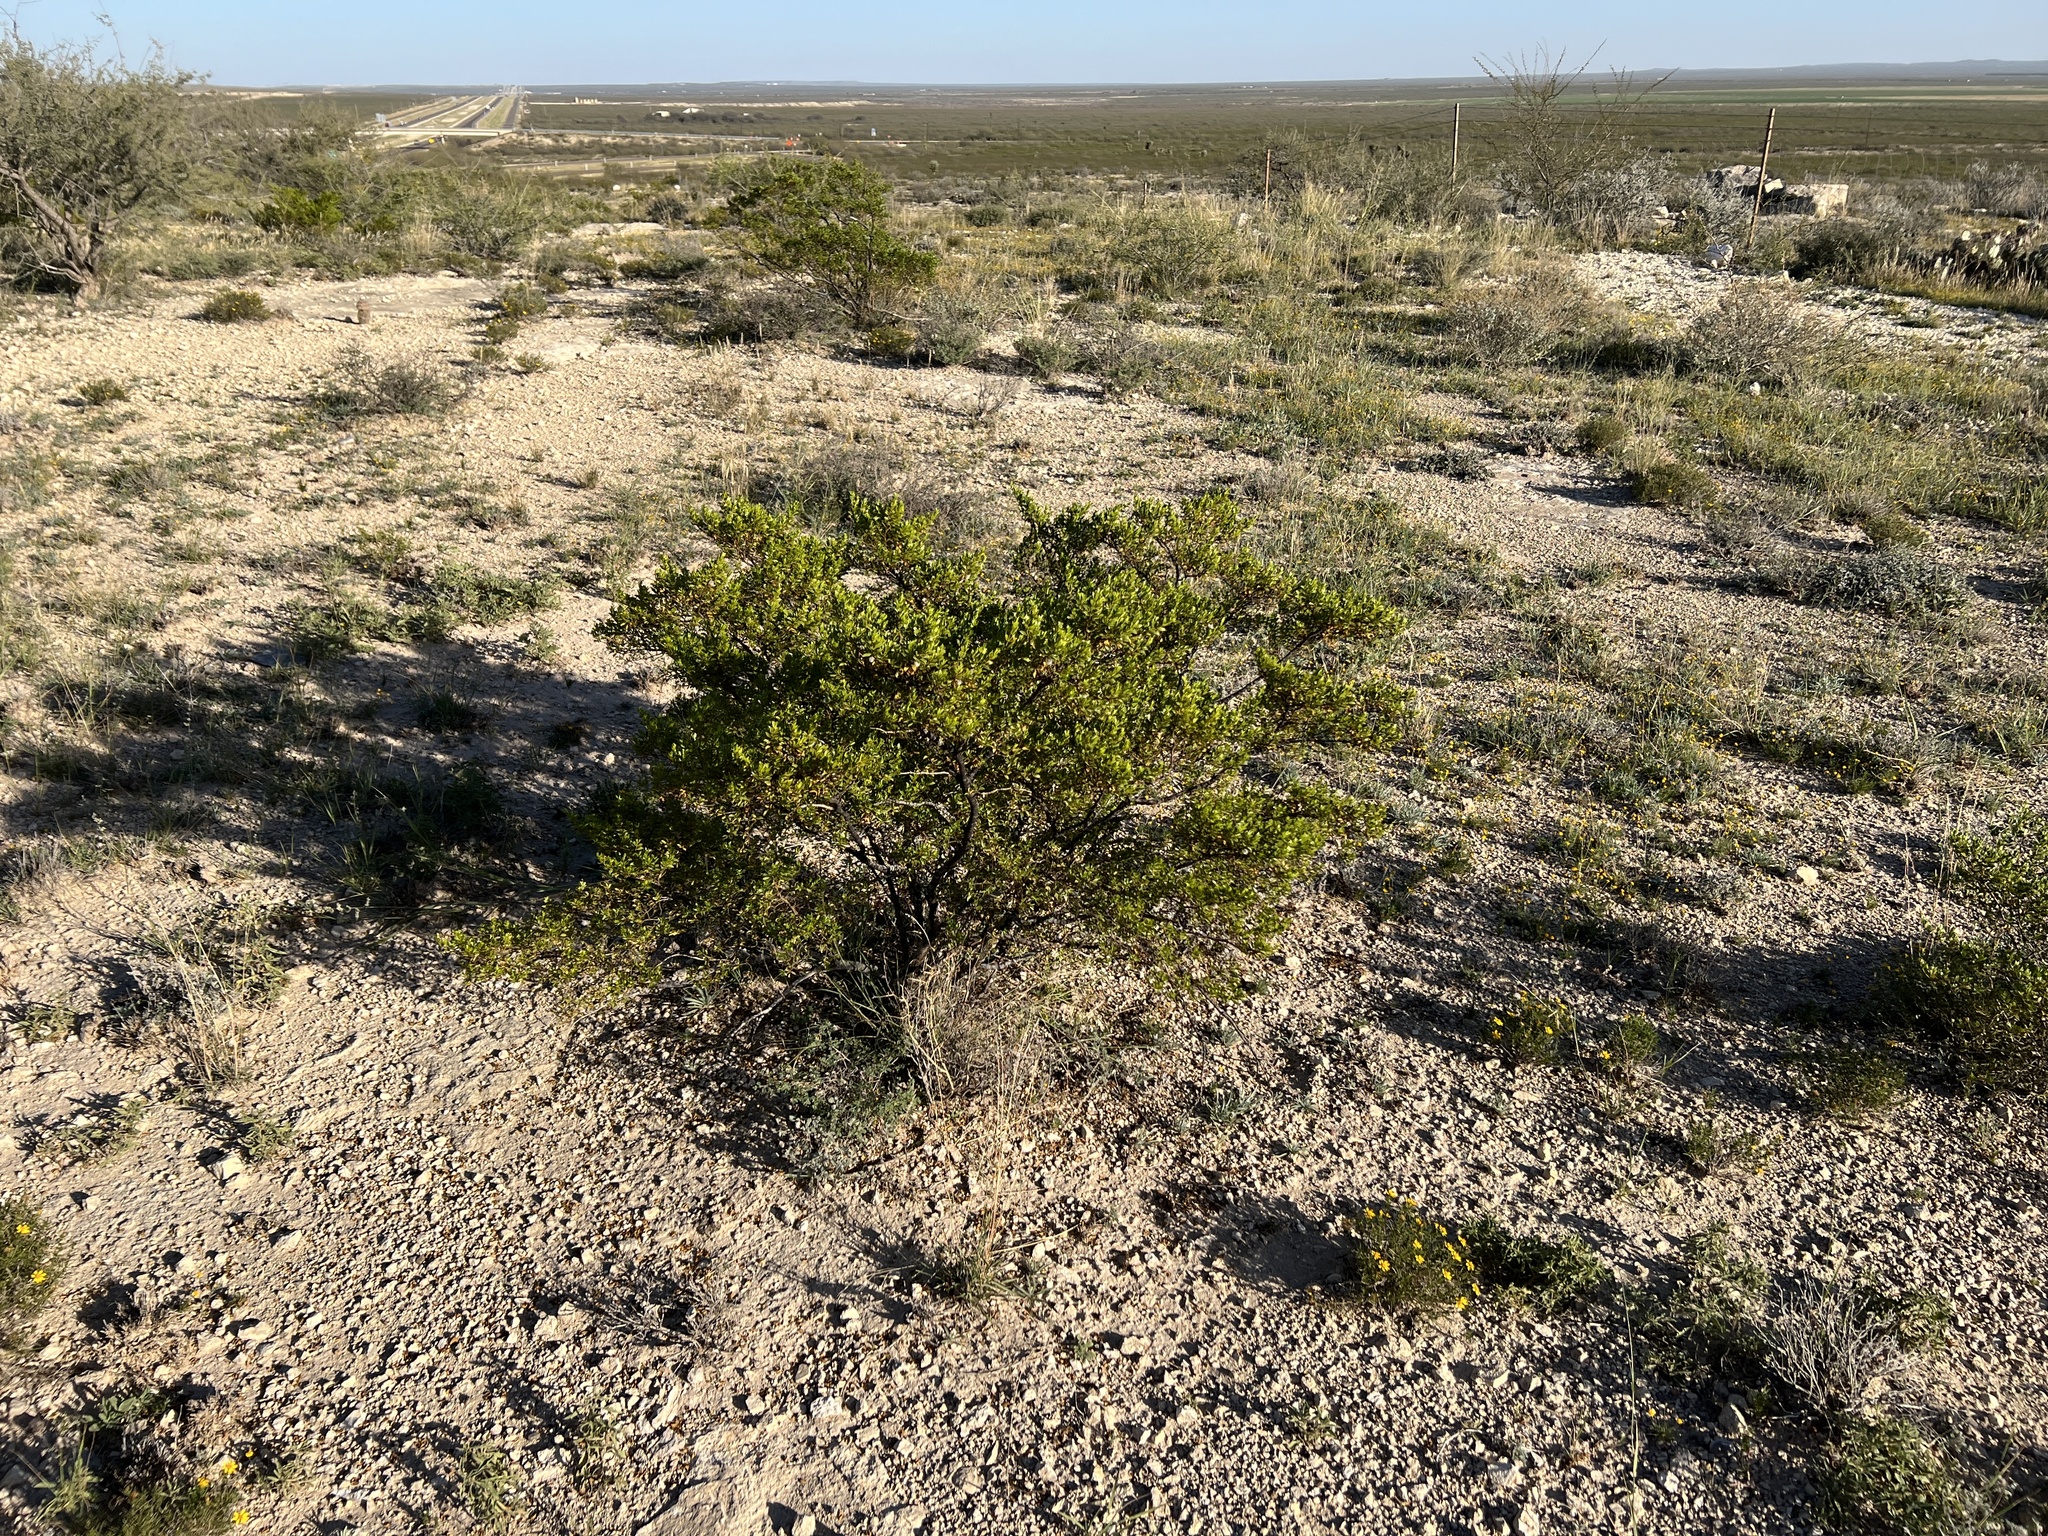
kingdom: Plantae
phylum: Tracheophyta
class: Magnoliopsida
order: Zygophyllales
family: Zygophyllaceae
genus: Larrea
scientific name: Larrea tridentata
